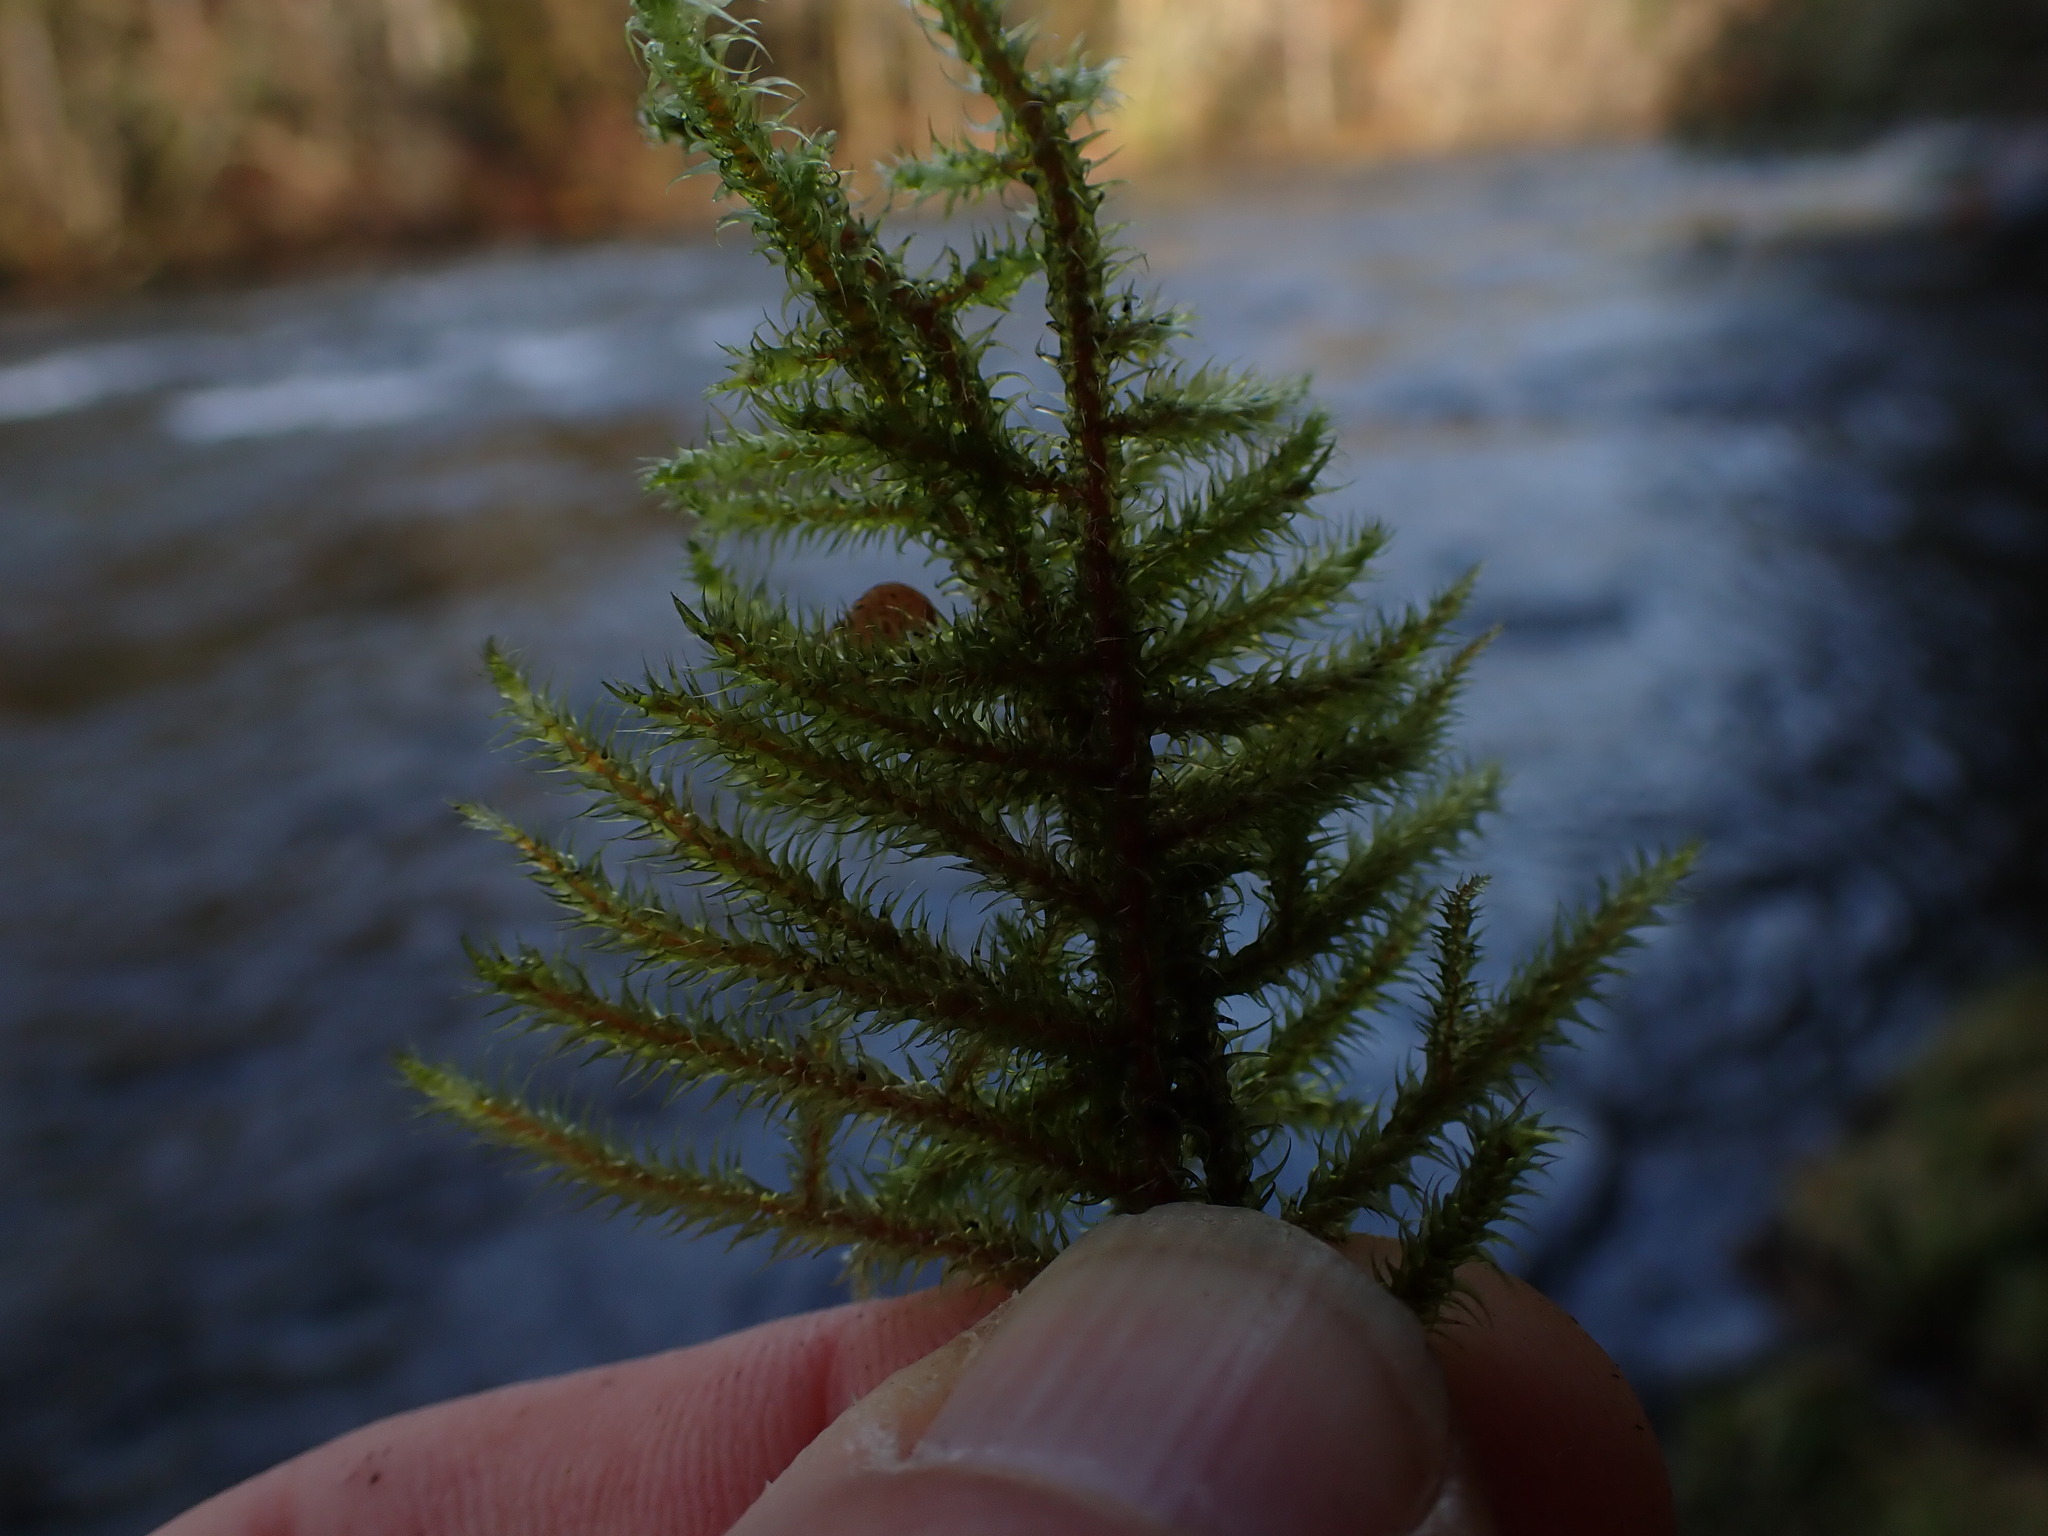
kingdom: Plantae
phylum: Bryophyta
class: Bryopsida
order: Hypnales
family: Hylocomiaceae
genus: Rhytidiadelphus
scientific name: Rhytidiadelphus loreus
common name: Lanky moss
